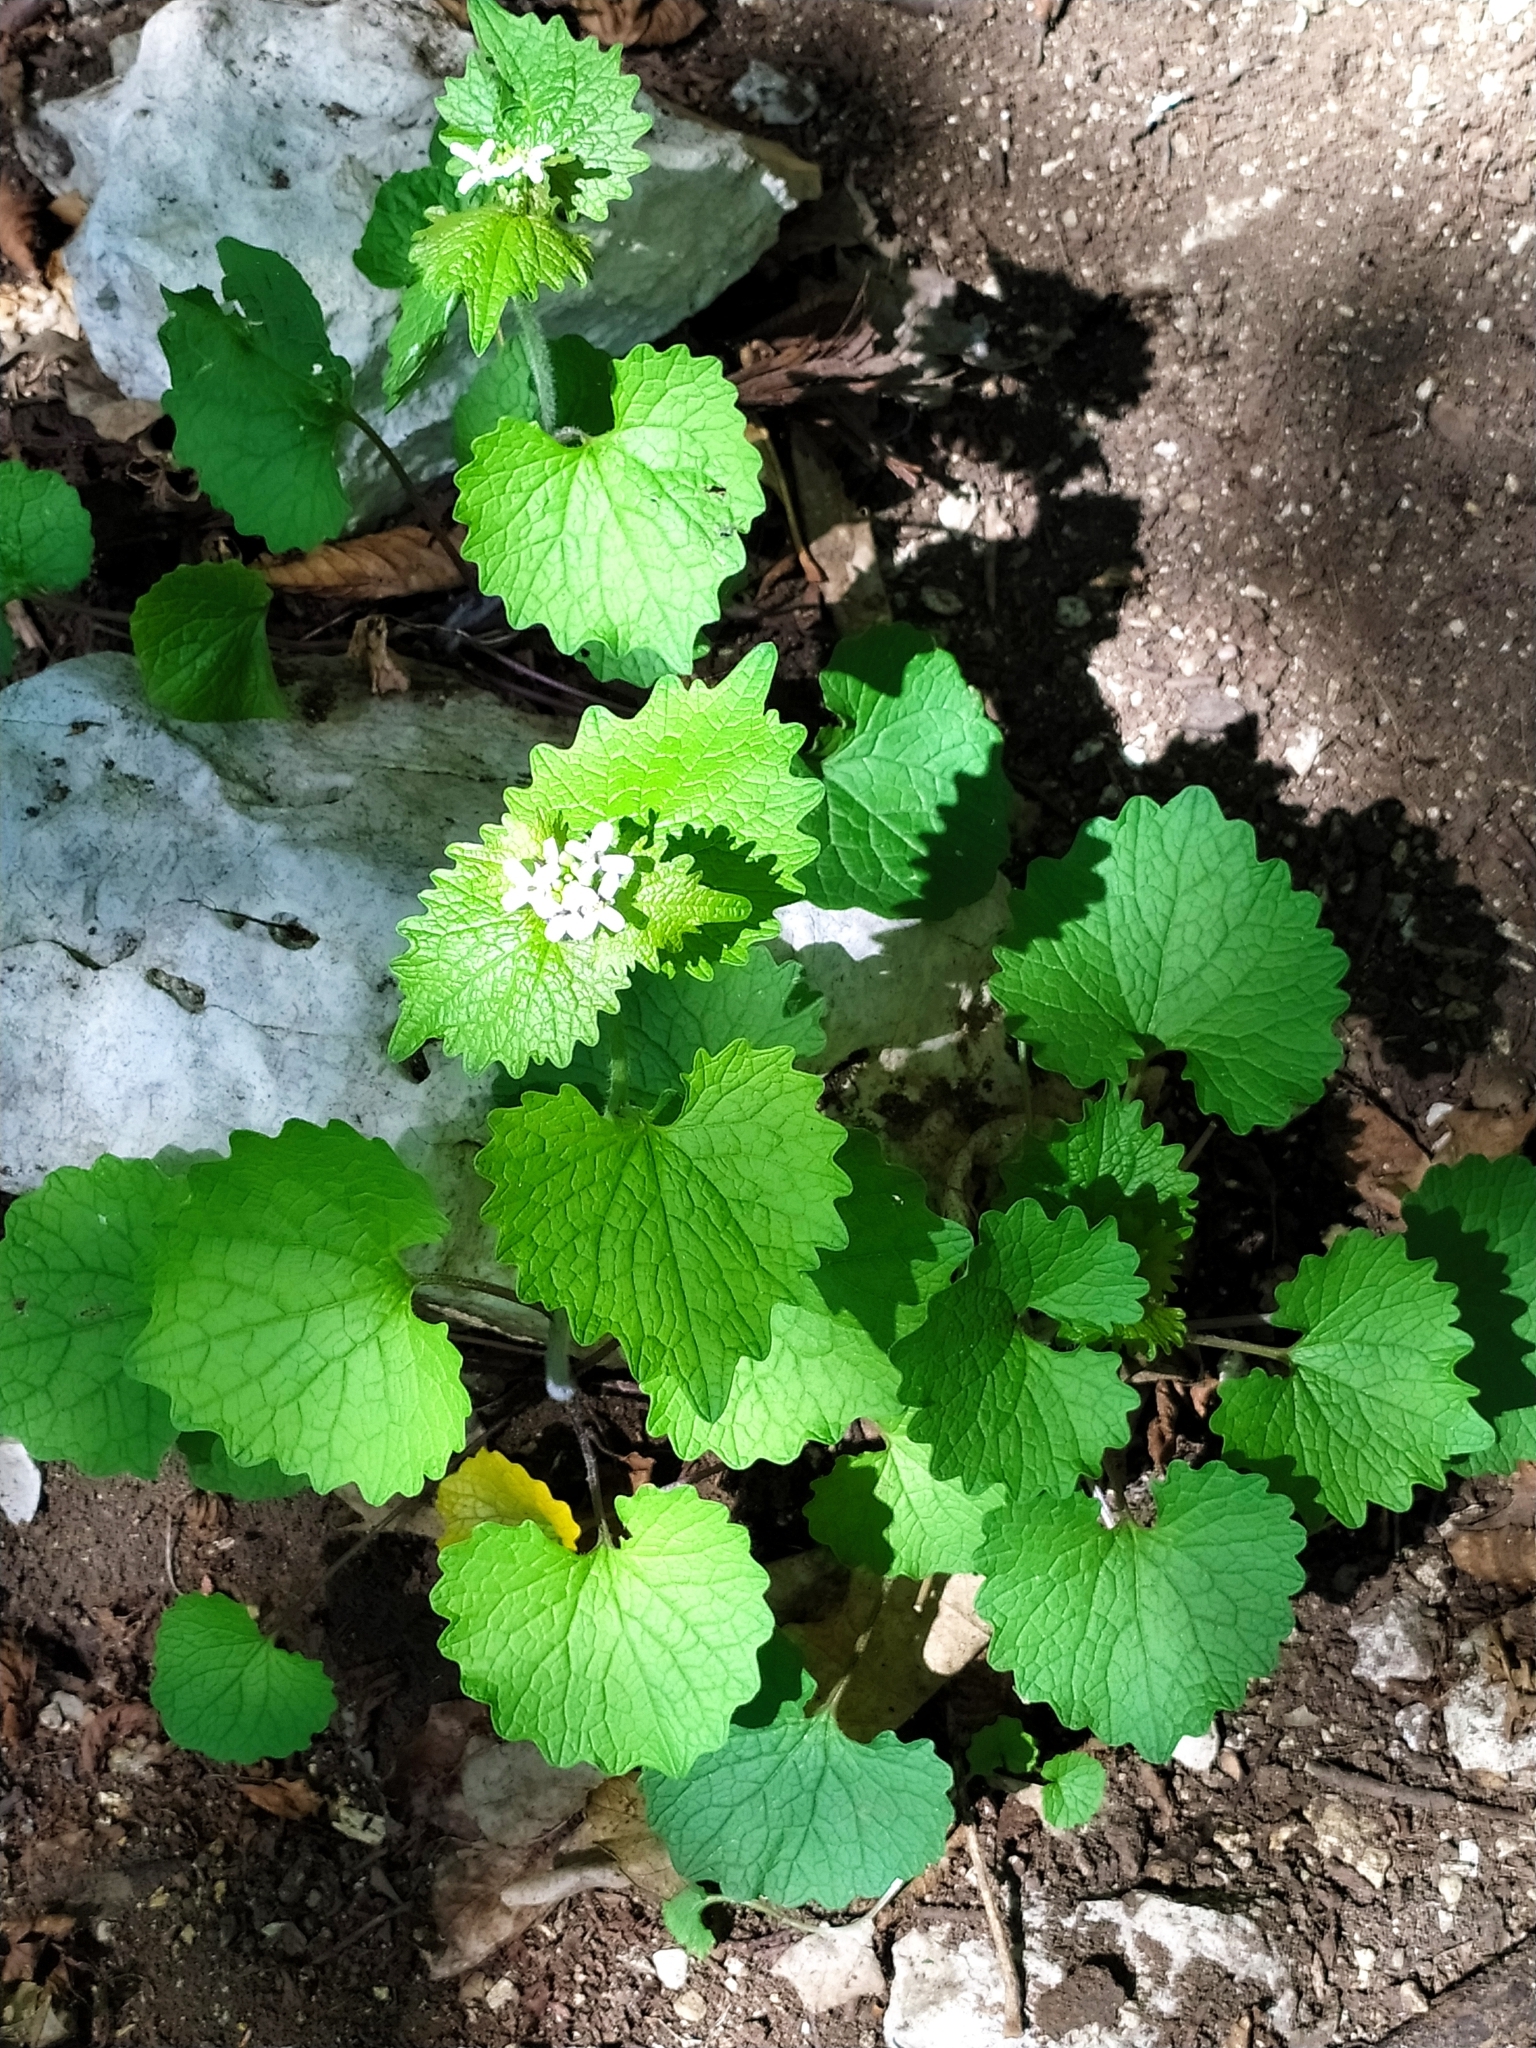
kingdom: Plantae
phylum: Tracheophyta
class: Magnoliopsida
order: Brassicales
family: Brassicaceae
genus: Alliaria
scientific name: Alliaria petiolata
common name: Garlic mustard
